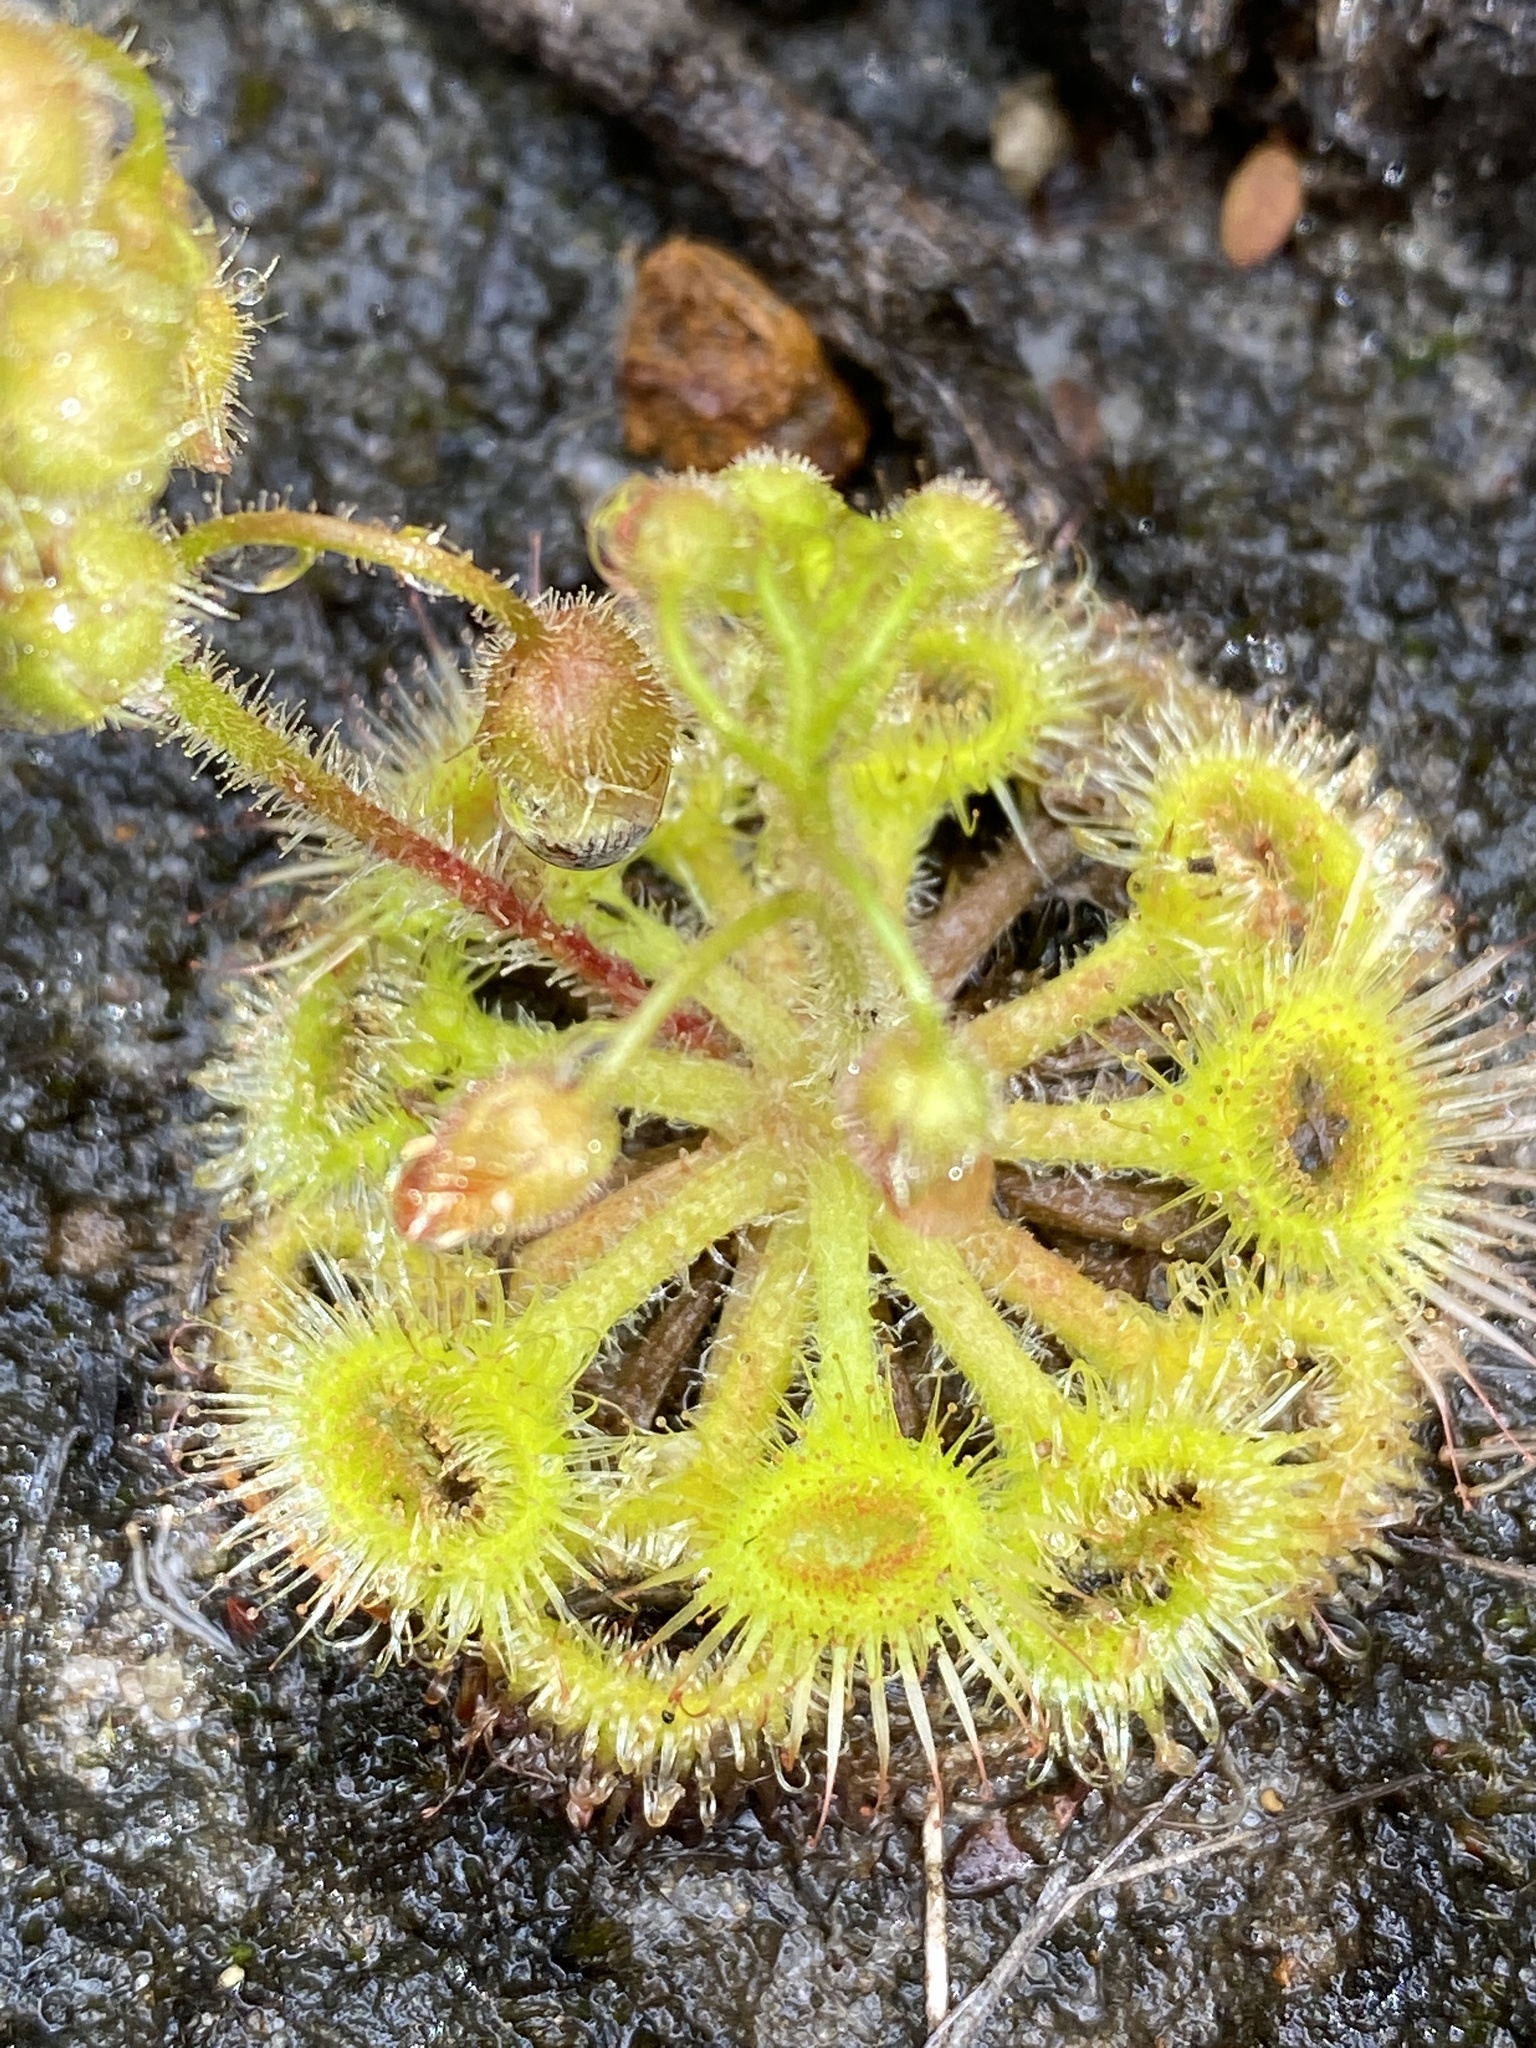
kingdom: Plantae
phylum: Tracheophyta
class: Magnoliopsida
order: Caryophyllales
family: Droseraceae
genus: Drosera
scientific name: Drosera glanduligera
